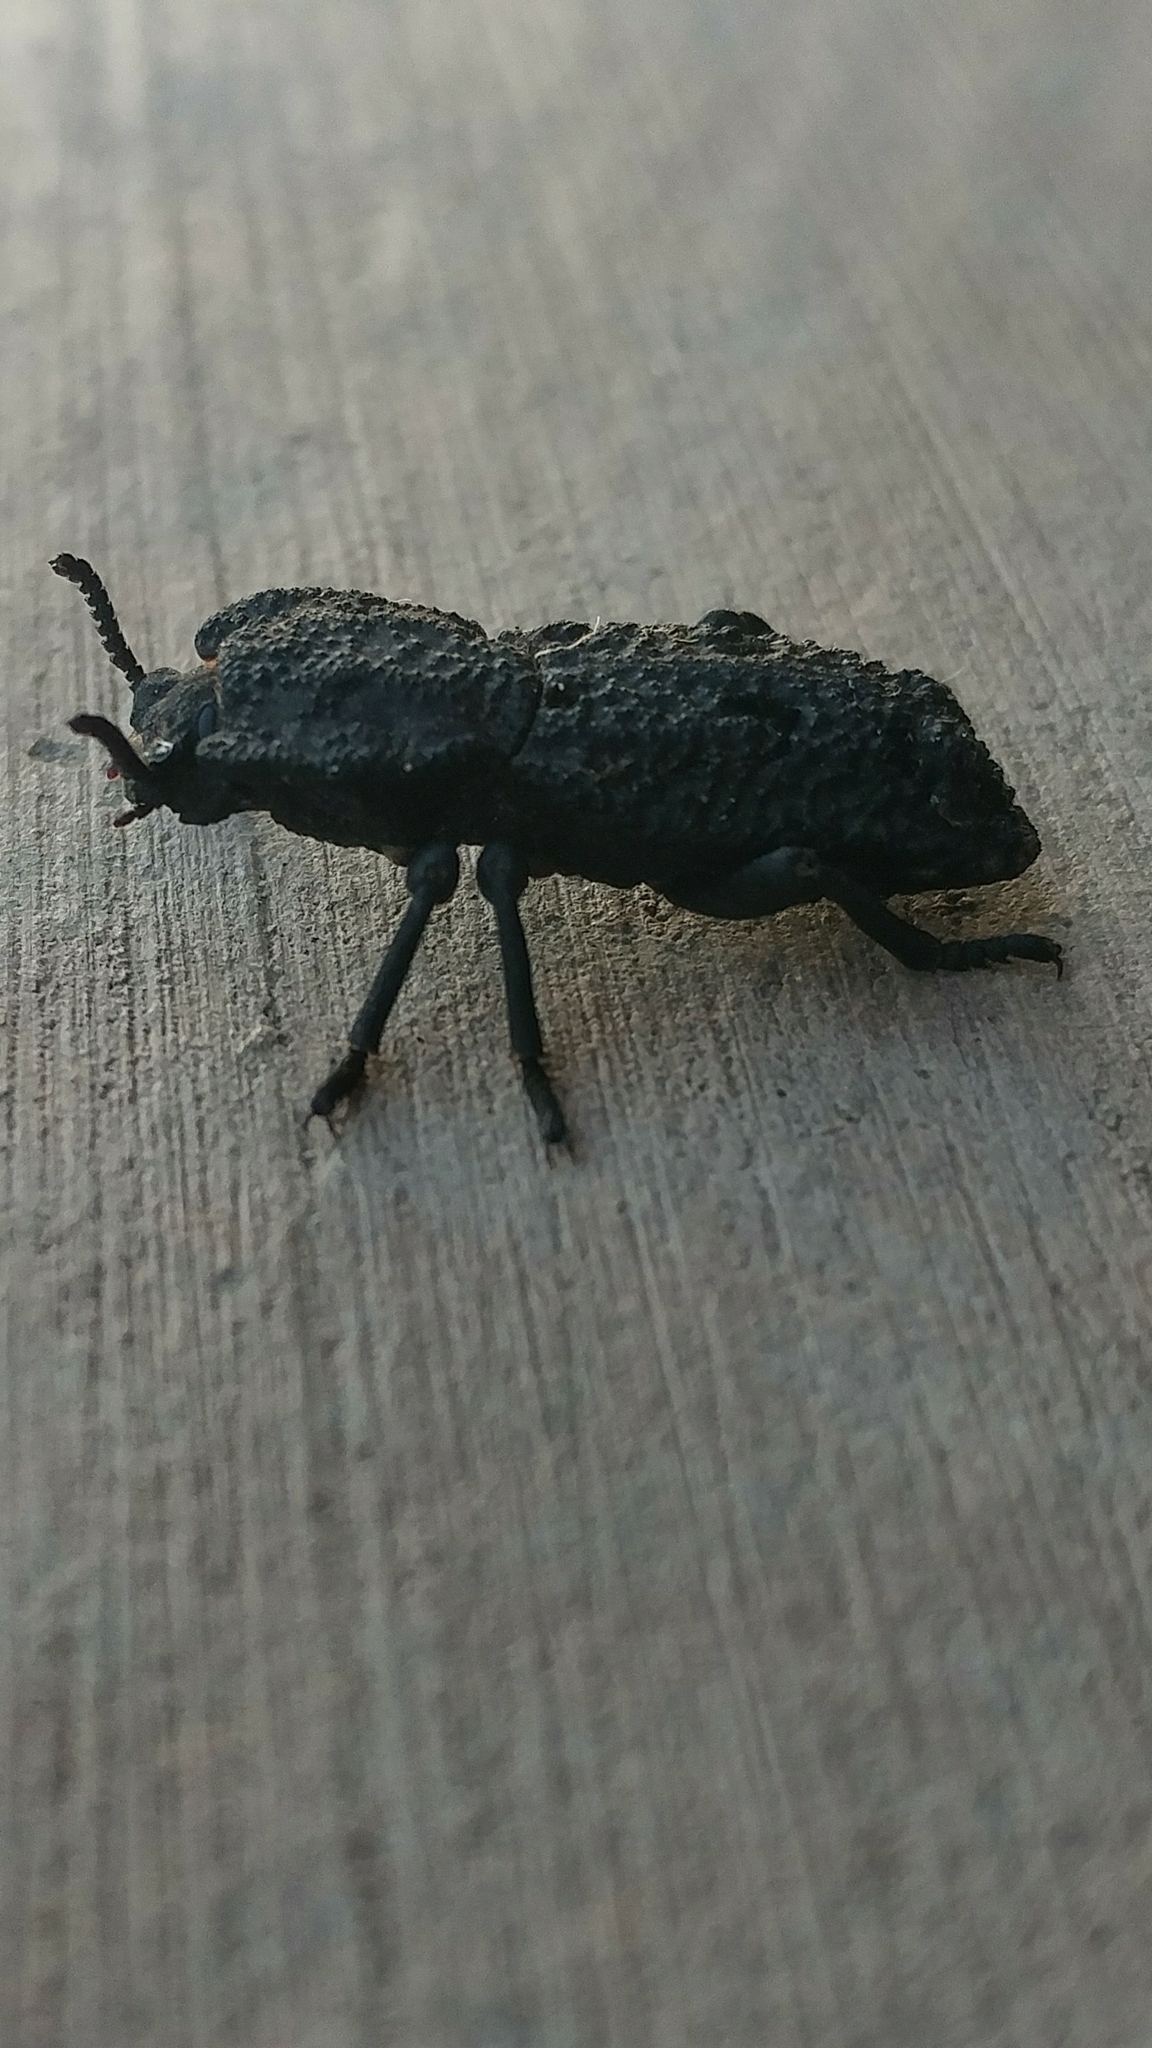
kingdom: Animalia
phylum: Arthropoda
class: Insecta
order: Coleoptera
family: Zopheridae
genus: Phloeodes
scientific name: Phloeodes diabolicus
